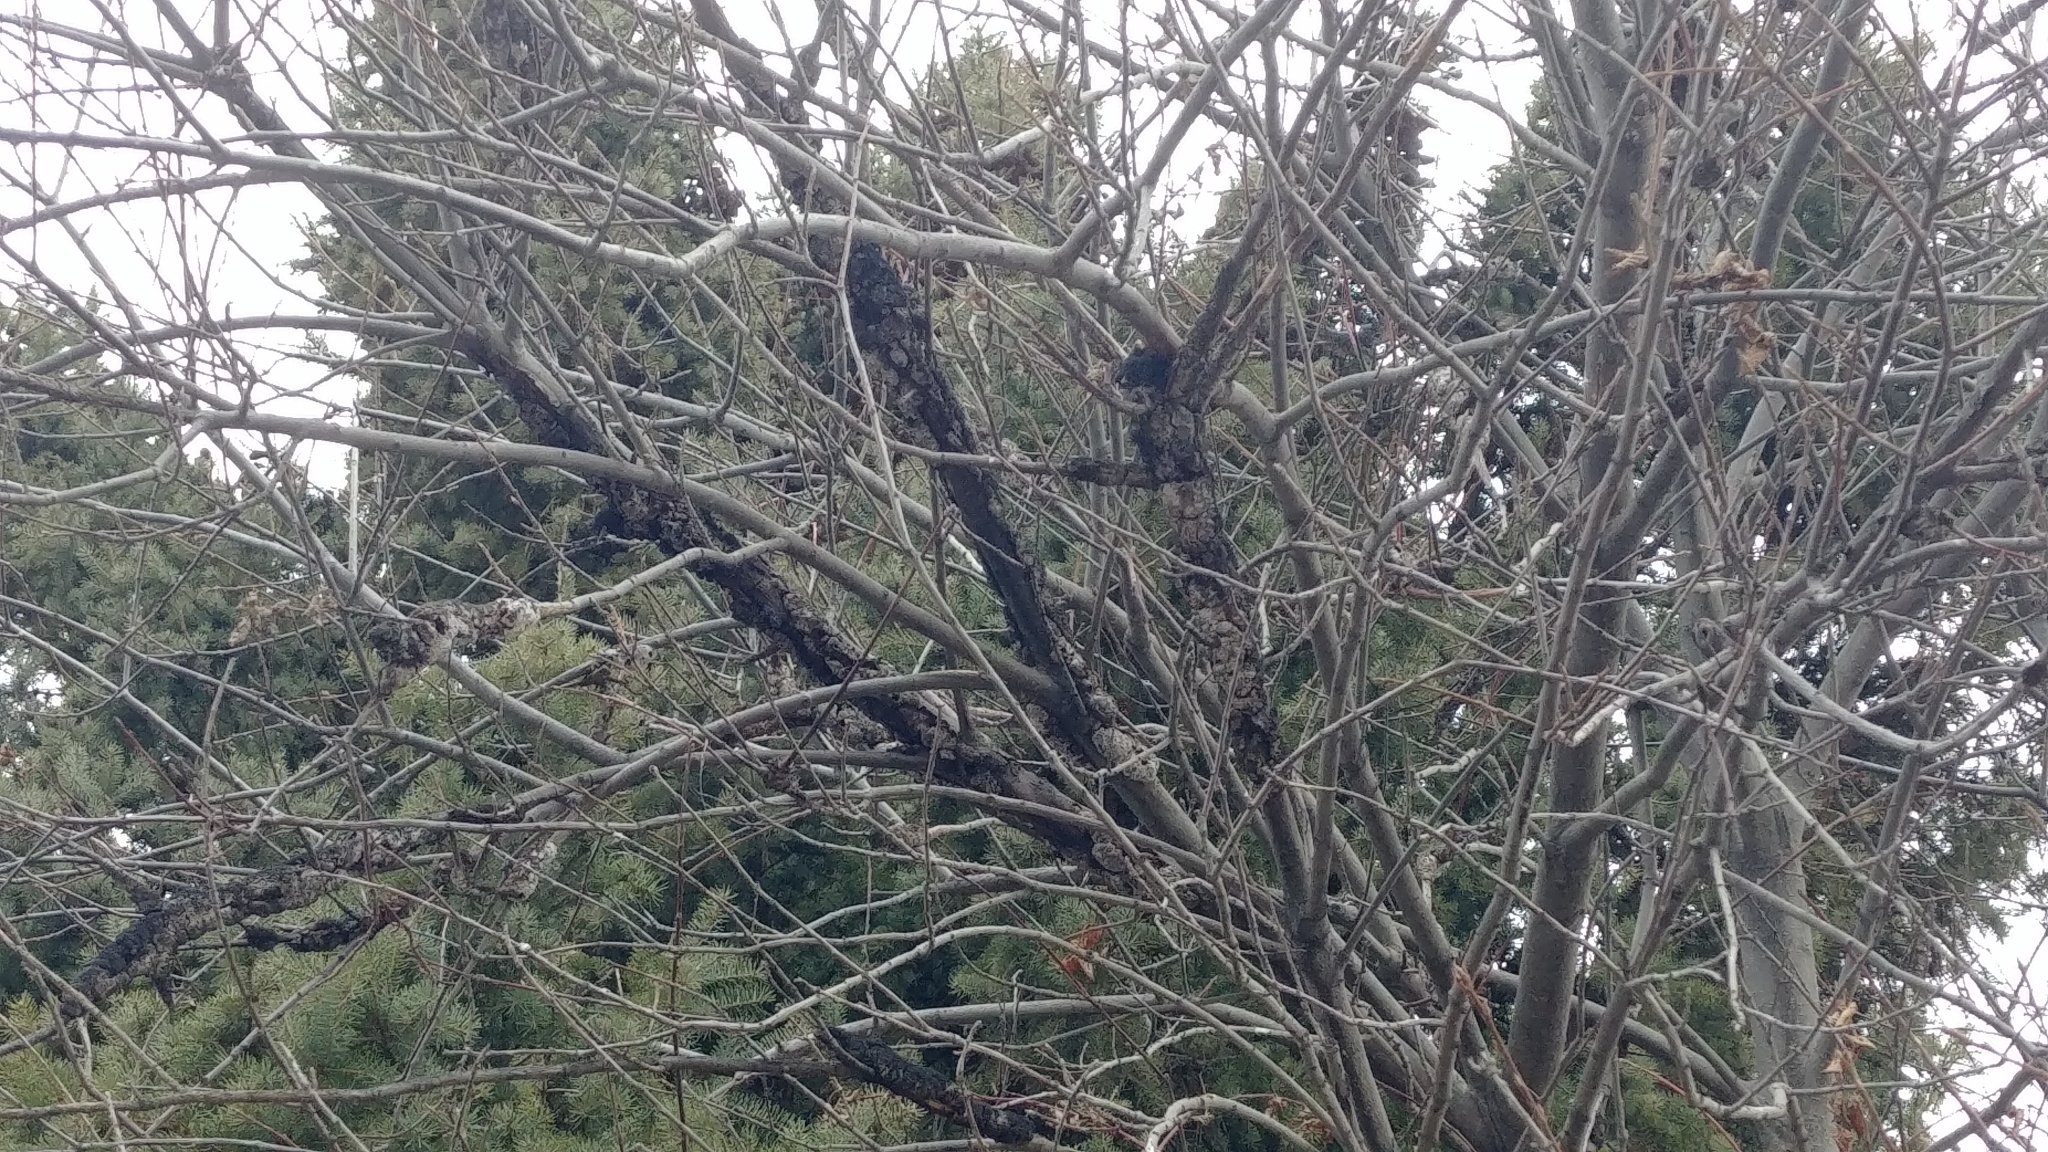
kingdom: Fungi
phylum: Ascomycota
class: Dothideomycetes
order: Venturiales
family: Venturiaceae
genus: Apiosporina
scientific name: Apiosporina morbosa
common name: Black knot
